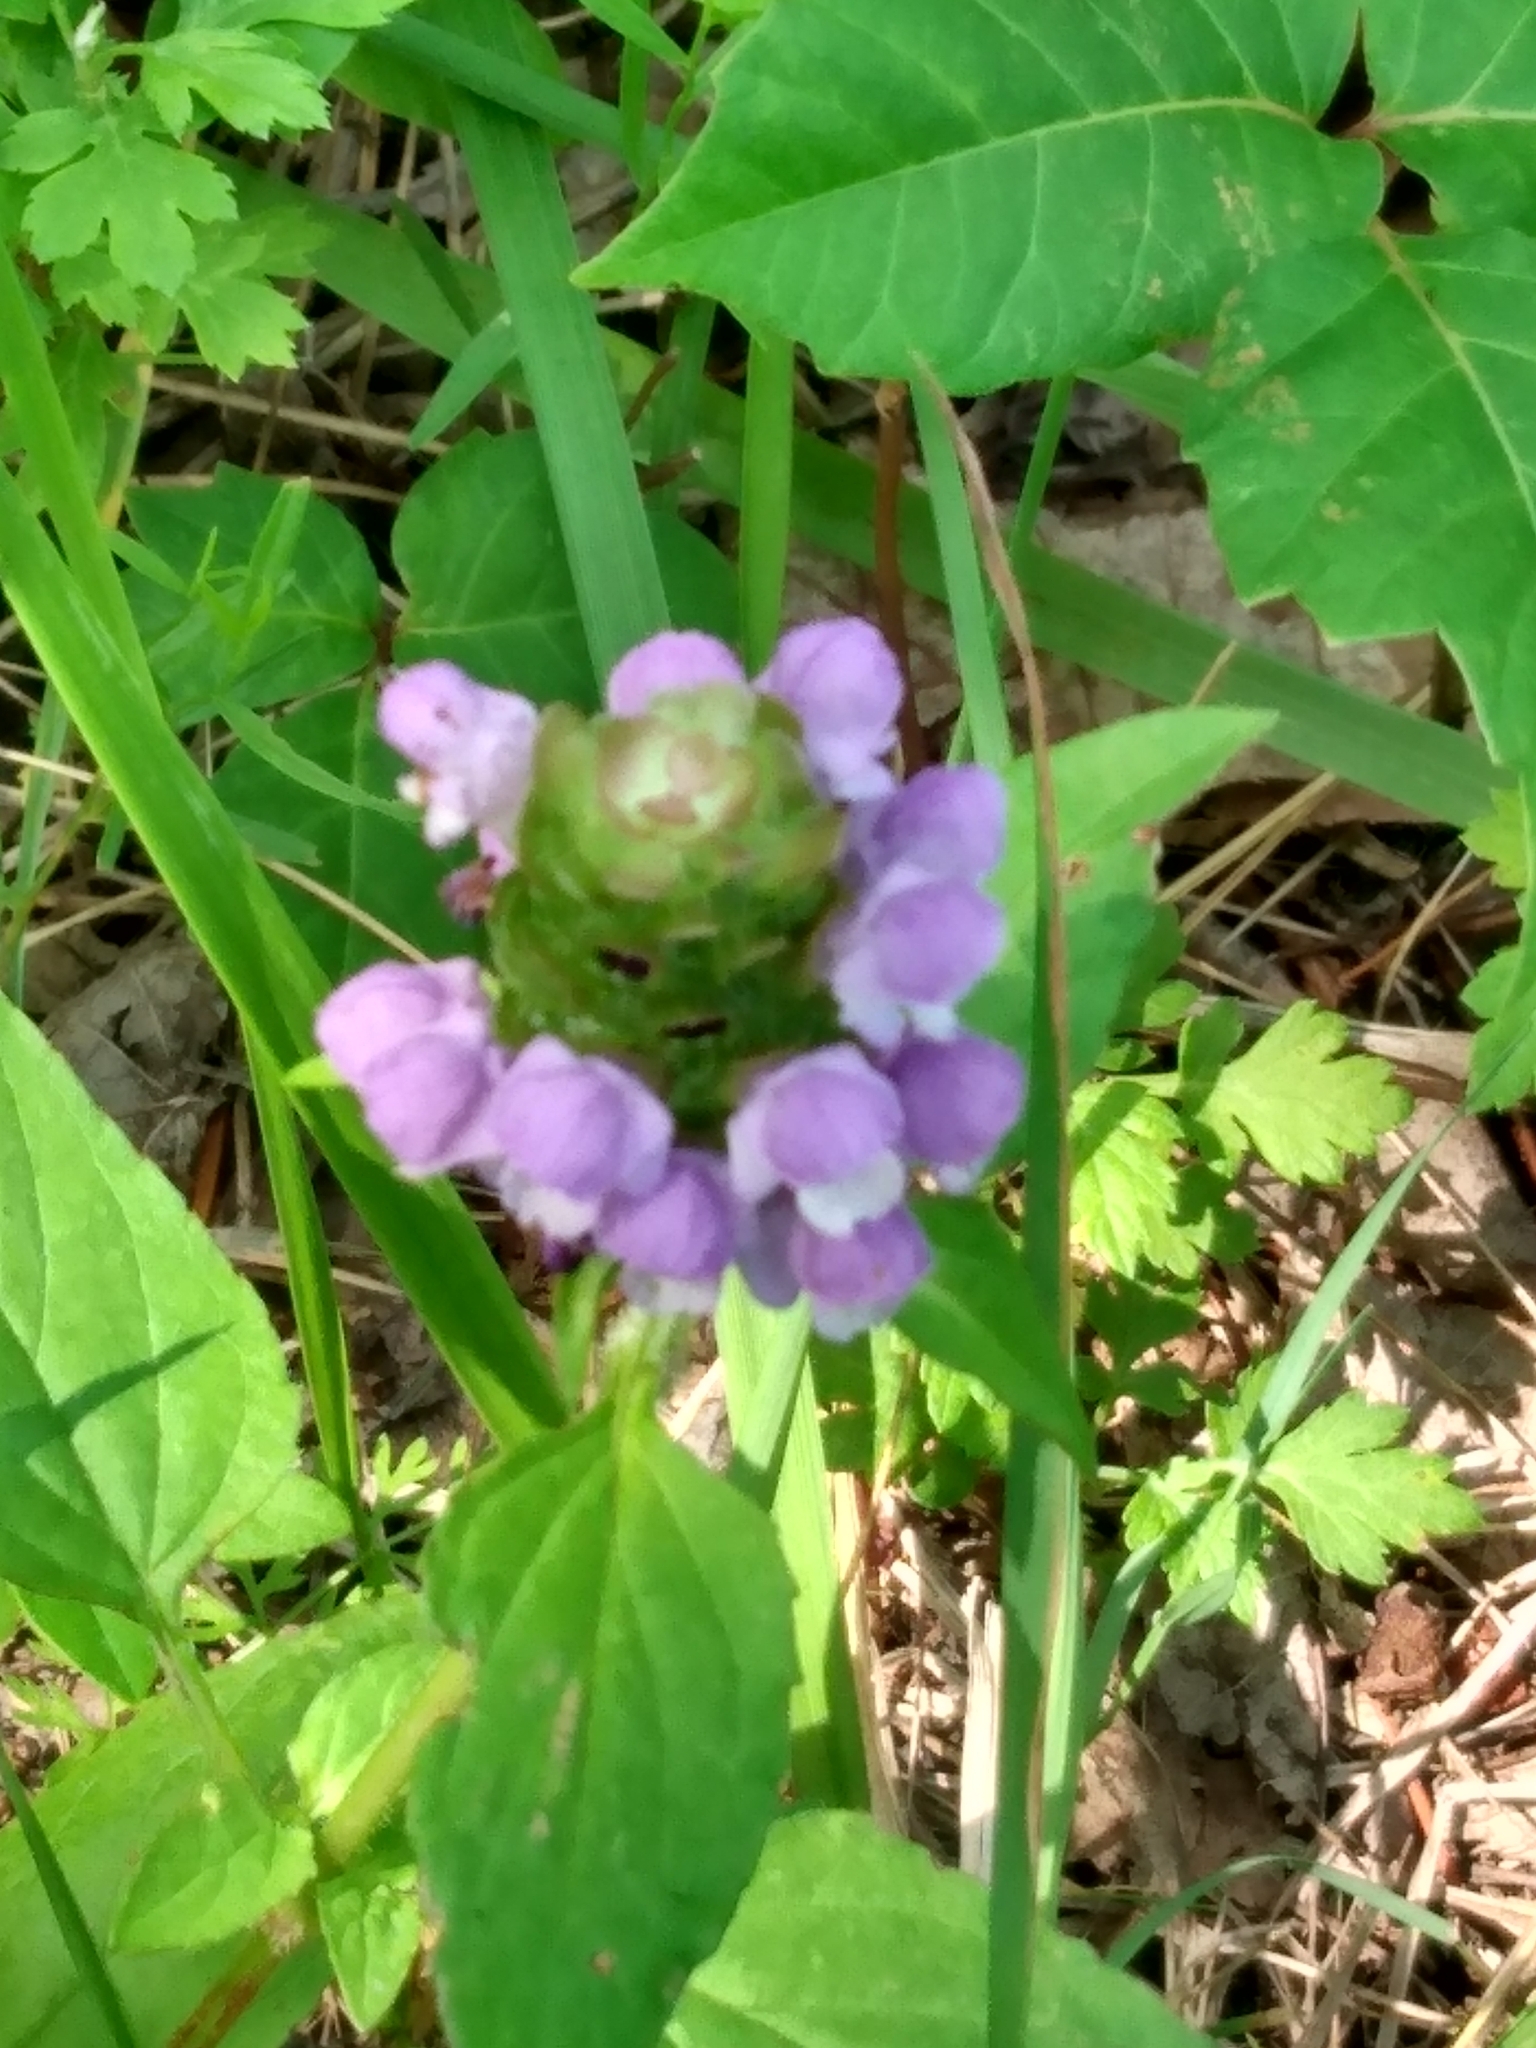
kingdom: Plantae
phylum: Tracheophyta
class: Magnoliopsida
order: Lamiales
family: Lamiaceae
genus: Prunella
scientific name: Prunella vulgaris
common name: Heal-all
